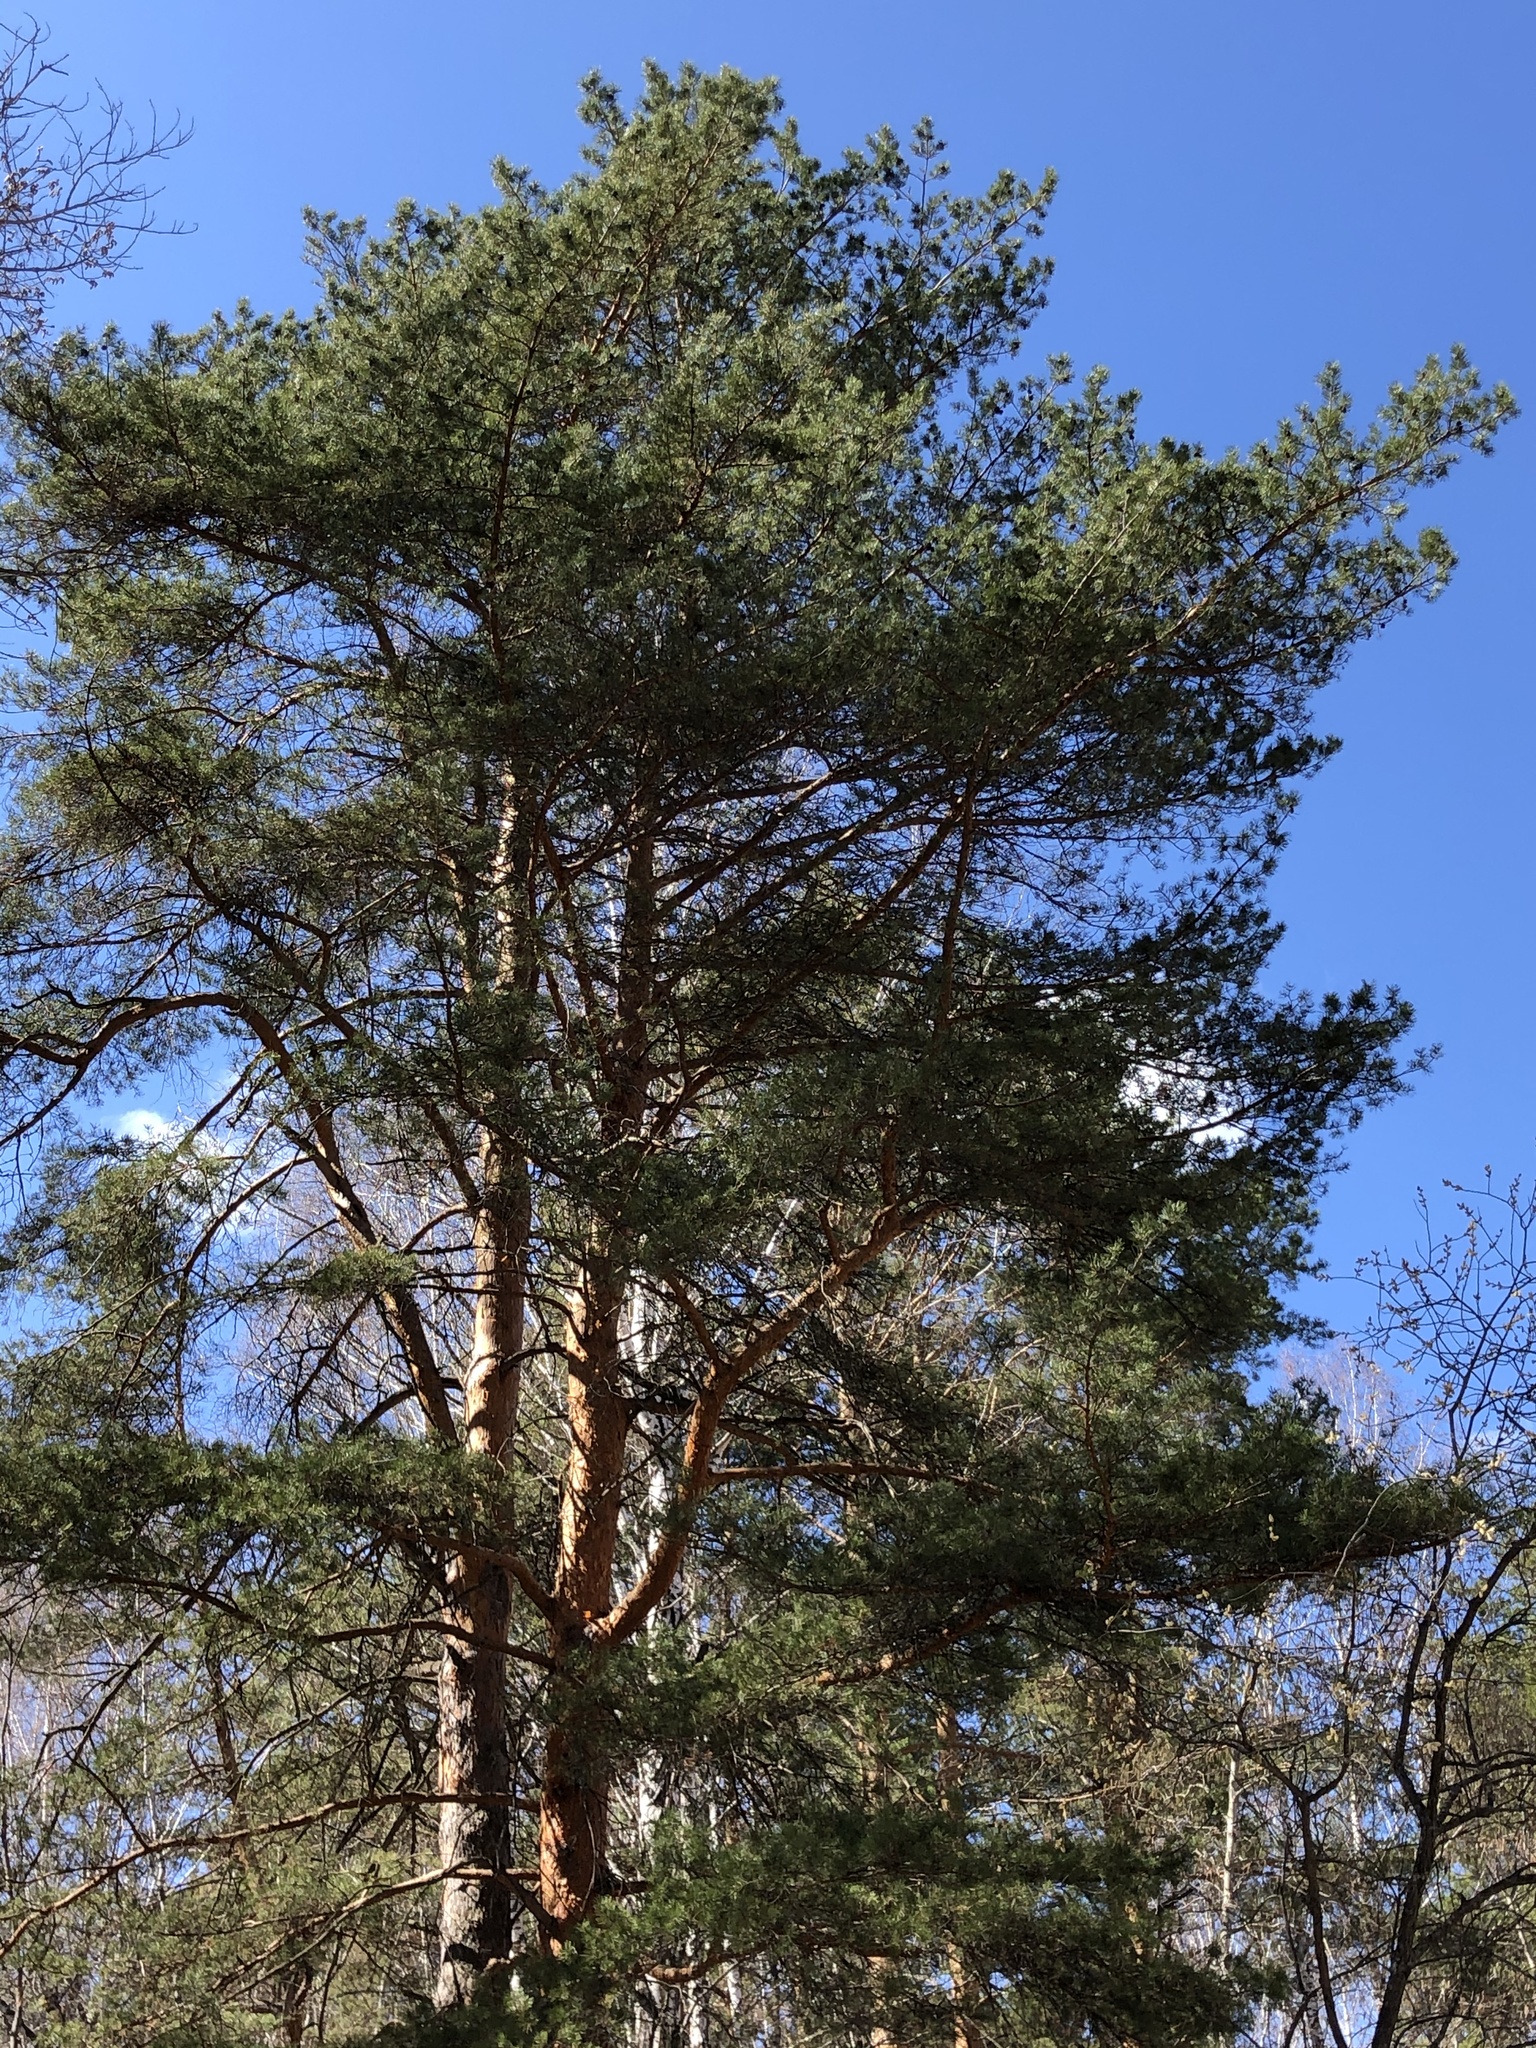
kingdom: Plantae
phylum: Tracheophyta
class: Pinopsida
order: Pinales
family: Pinaceae
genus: Pinus
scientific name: Pinus sylvestris
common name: Scots pine
